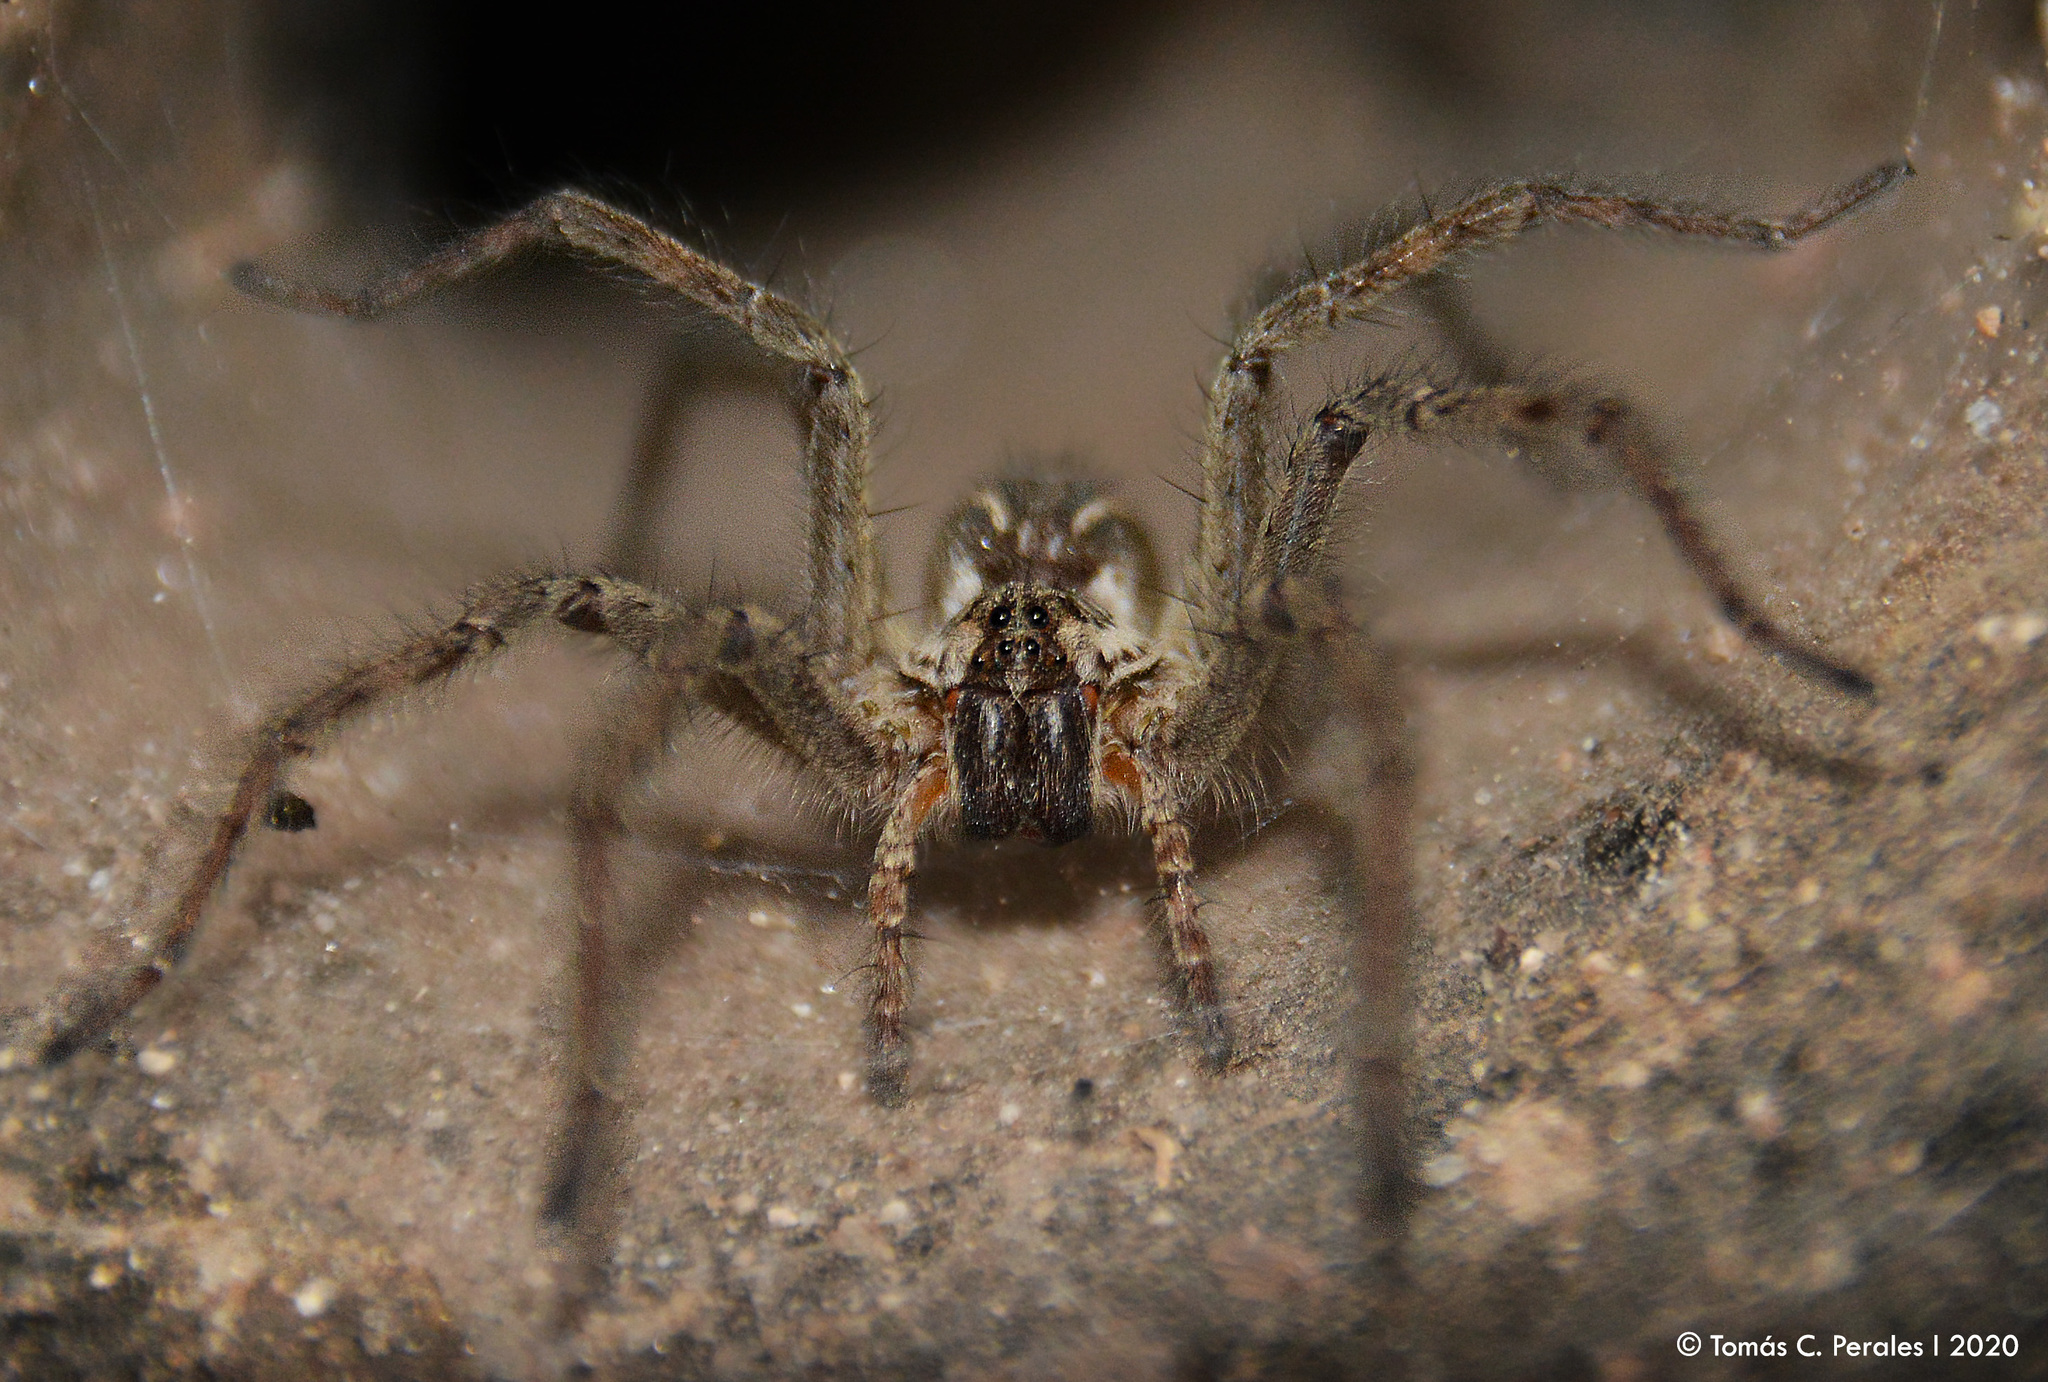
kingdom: Animalia
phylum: Arthropoda
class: Arachnida
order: Araneae
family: Lycosidae
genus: Aglaoctenus
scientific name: Aglaoctenus lagotis
